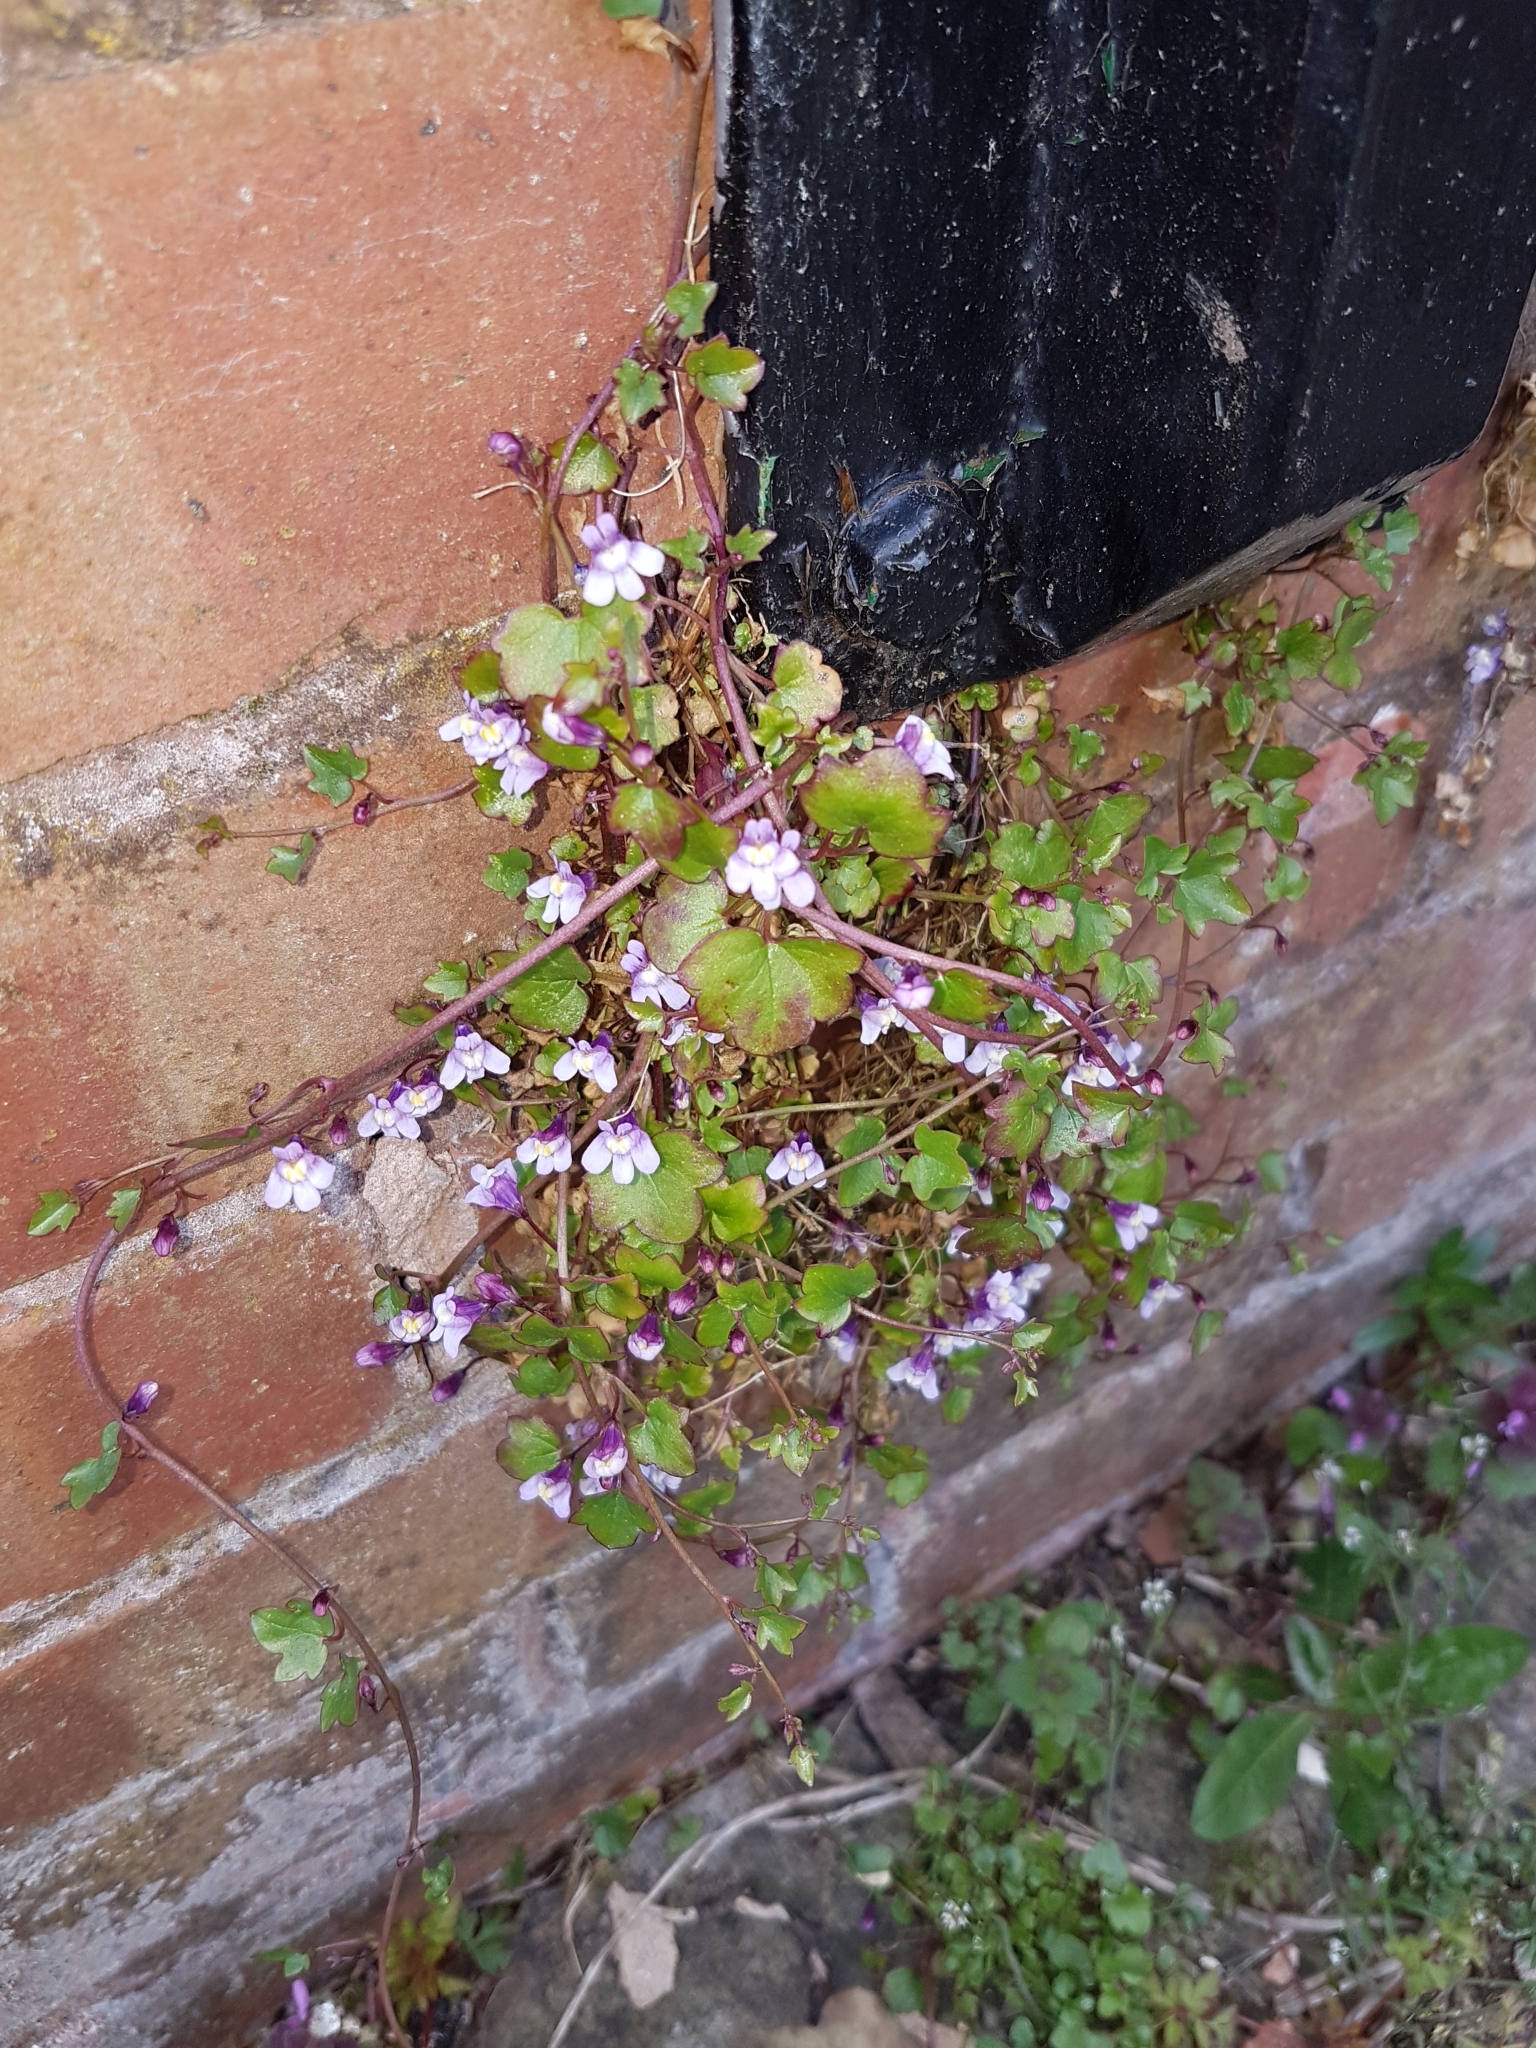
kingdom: Plantae
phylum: Tracheophyta
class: Magnoliopsida
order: Lamiales
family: Plantaginaceae
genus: Cymbalaria
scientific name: Cymbalaria muralis
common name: Ivy-leaved toadflax
